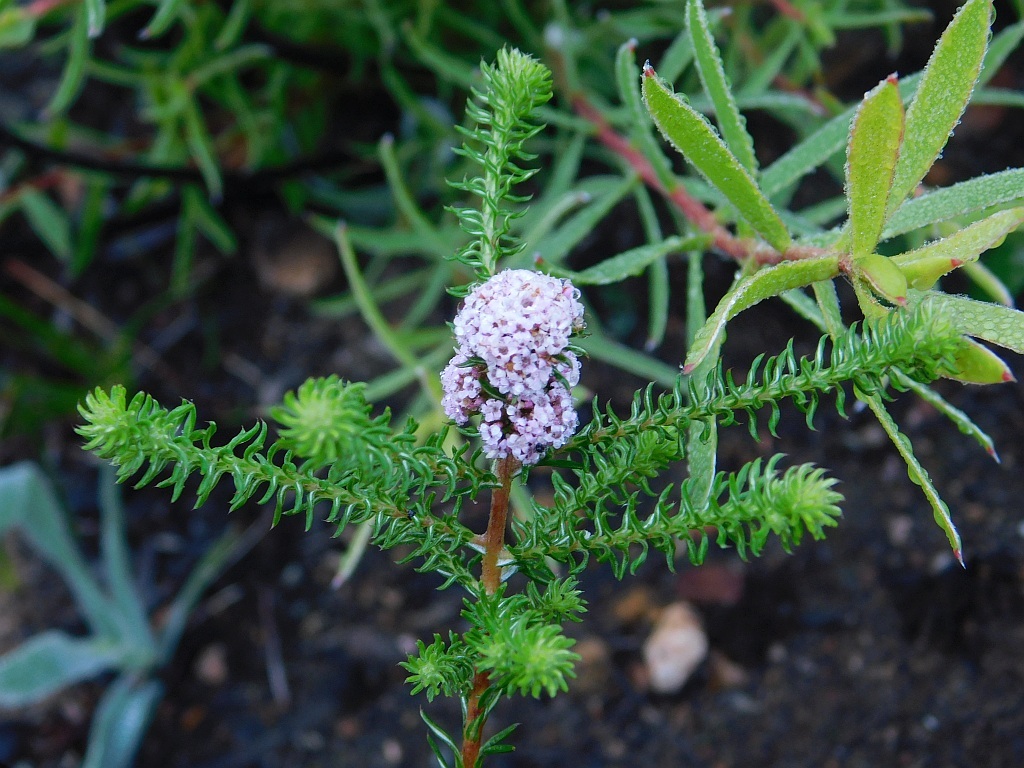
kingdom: Plantae
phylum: Tracheophyta
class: Magnoliopsida
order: Asterales
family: Asteraceae
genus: Stoebe
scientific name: Stoebe capitata
